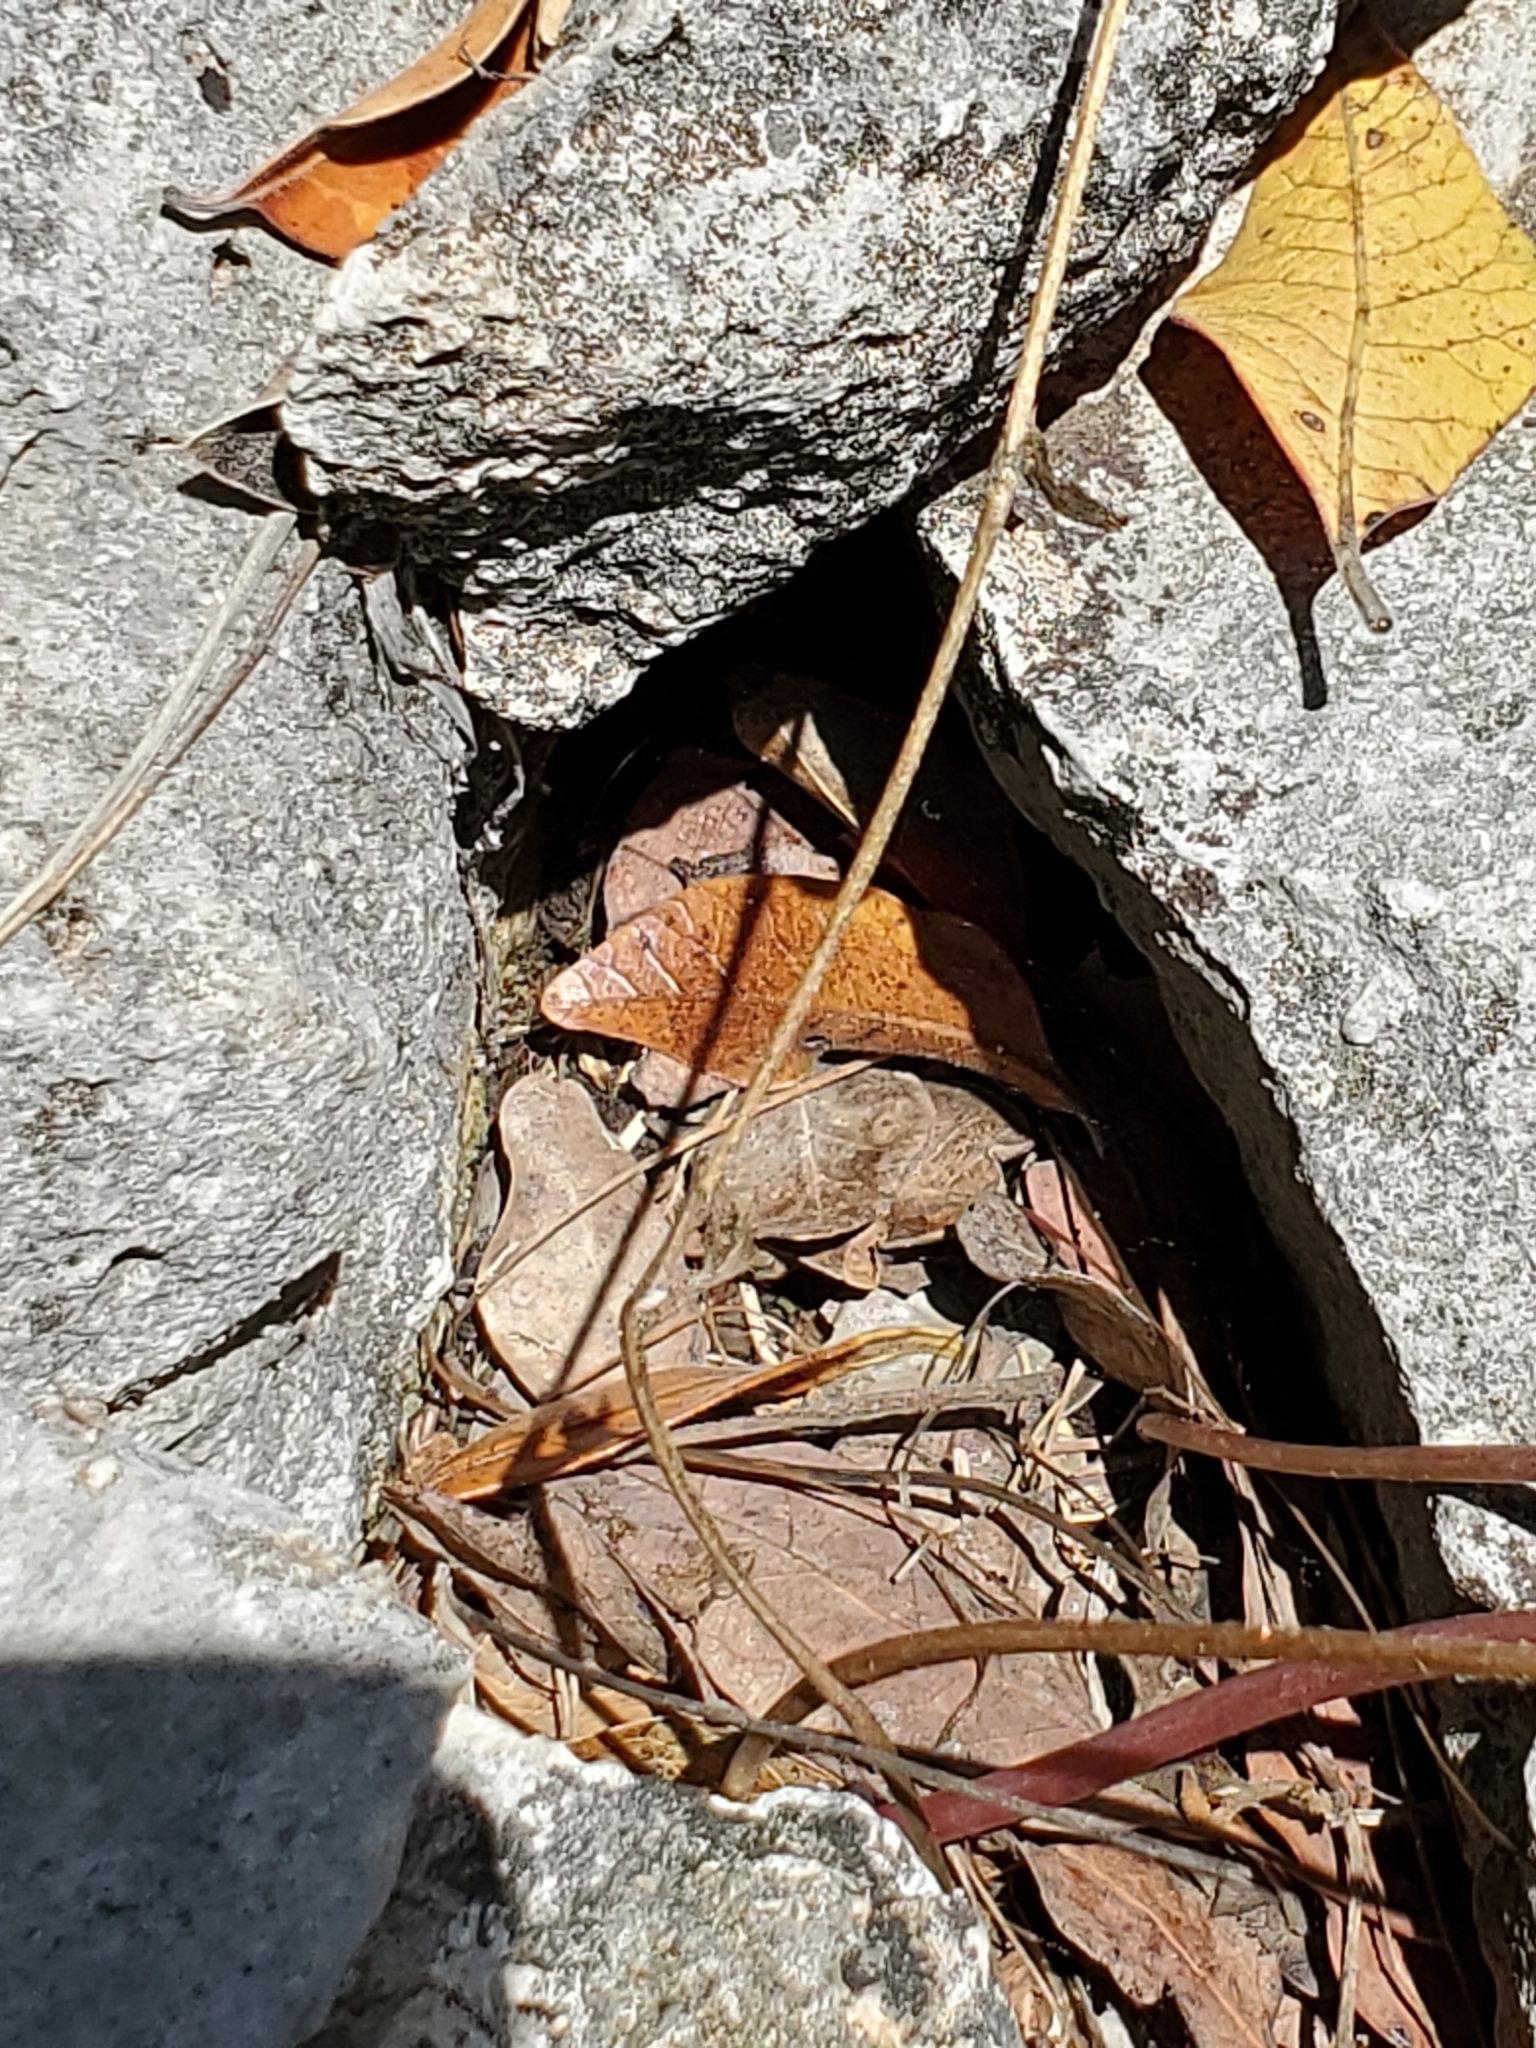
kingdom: Plantae
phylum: Tracheophyta
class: Magnoliopsida
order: Ranunculales
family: Ranunculaceae
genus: Anemone
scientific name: Anemone edwardsiana
